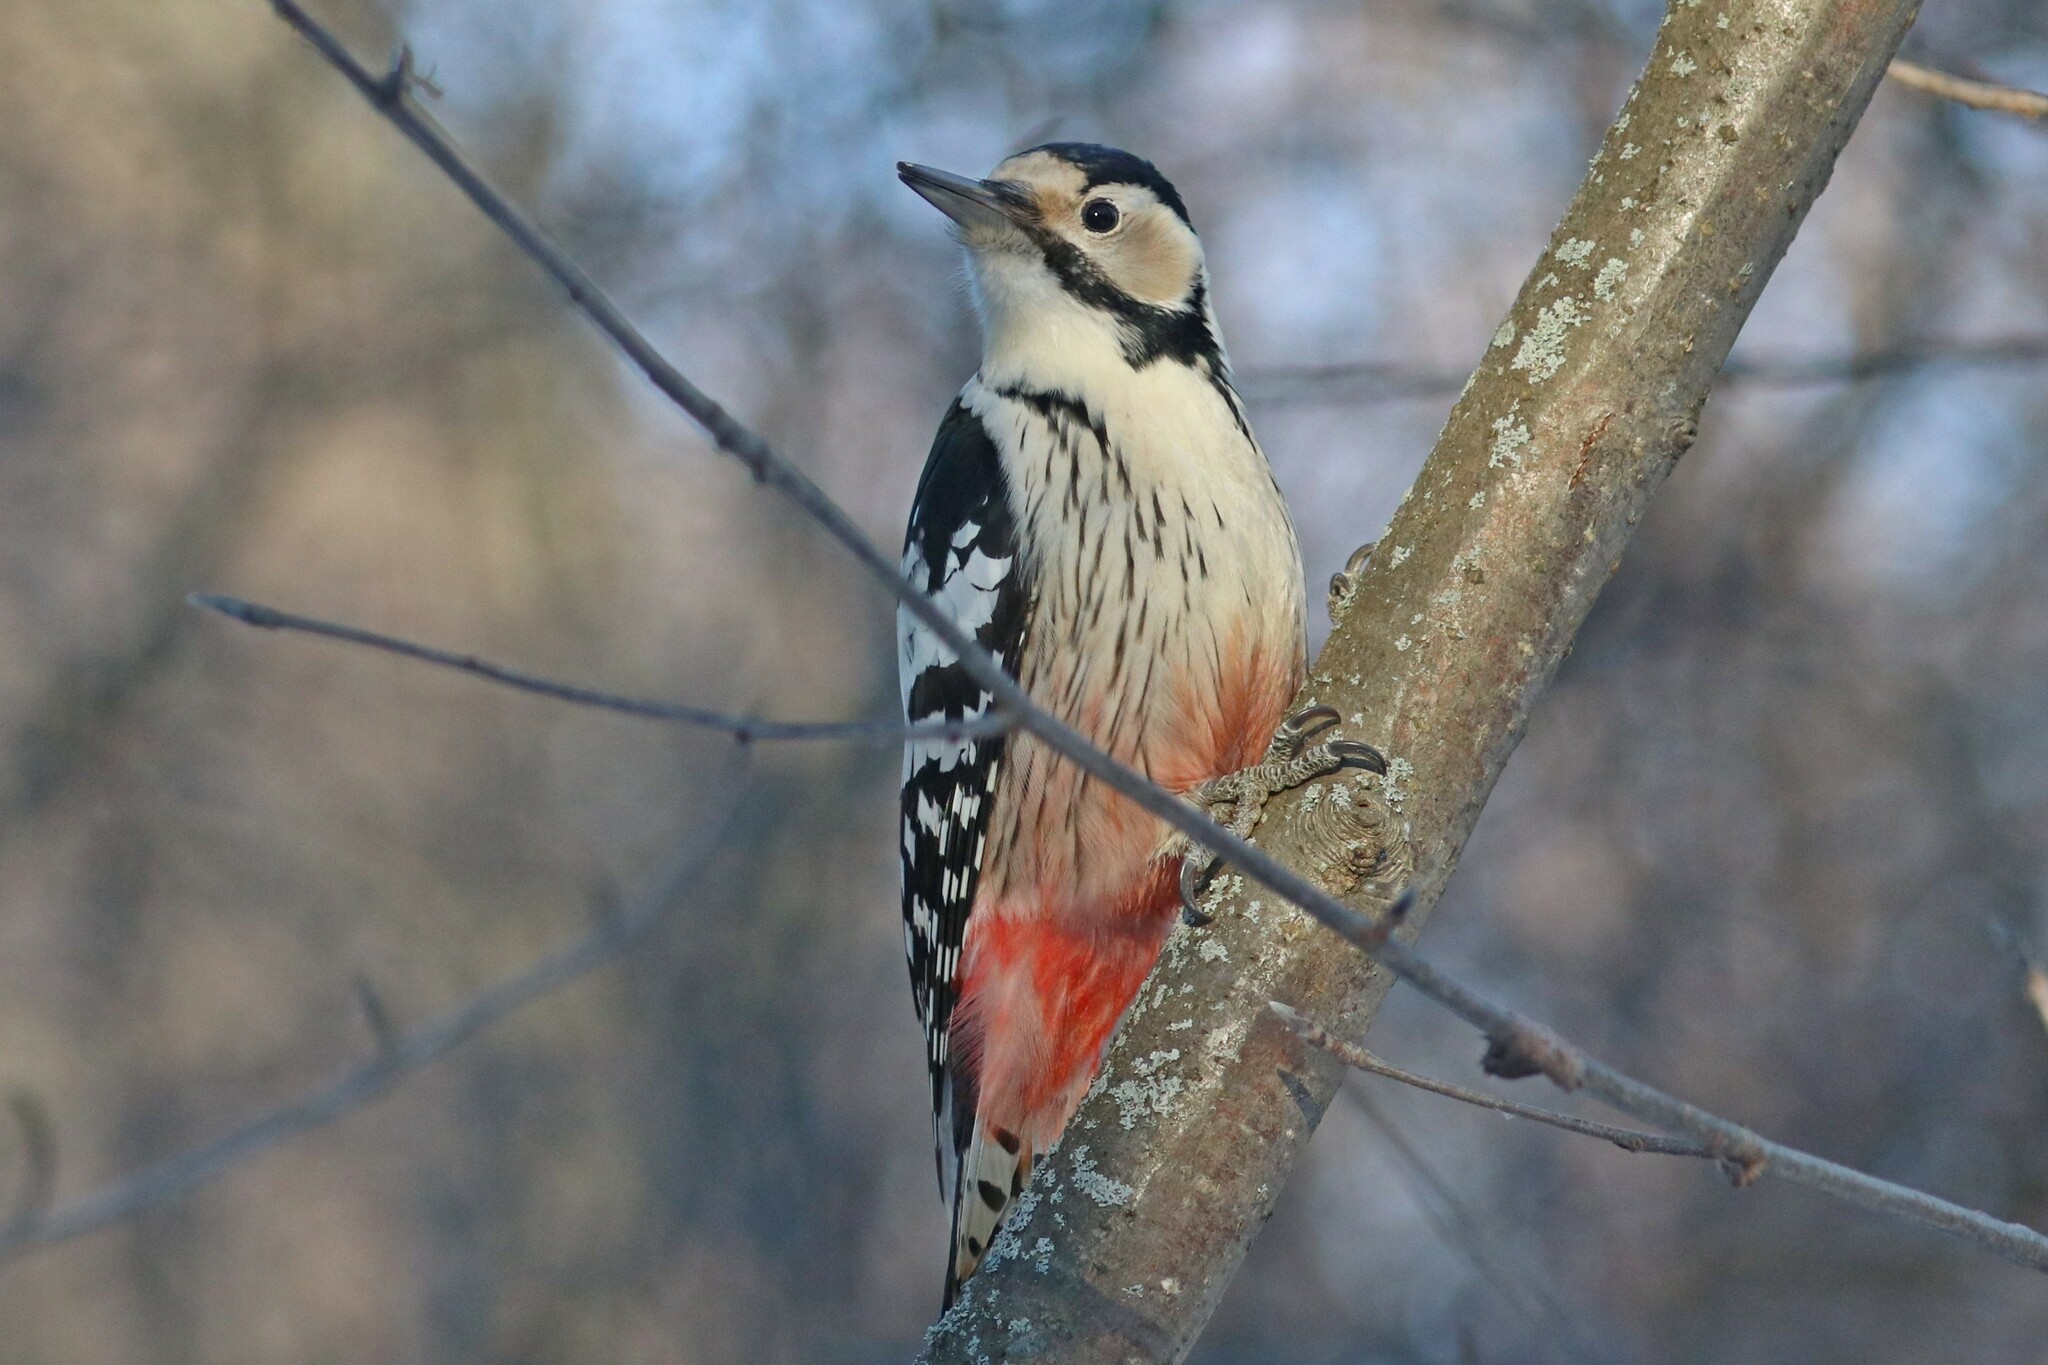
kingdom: Animalia
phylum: Chordata
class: Aves
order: Piciformes
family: Picidae
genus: Dendrocopos
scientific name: Dendrocopos leucotos
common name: White-backed woodpecker
